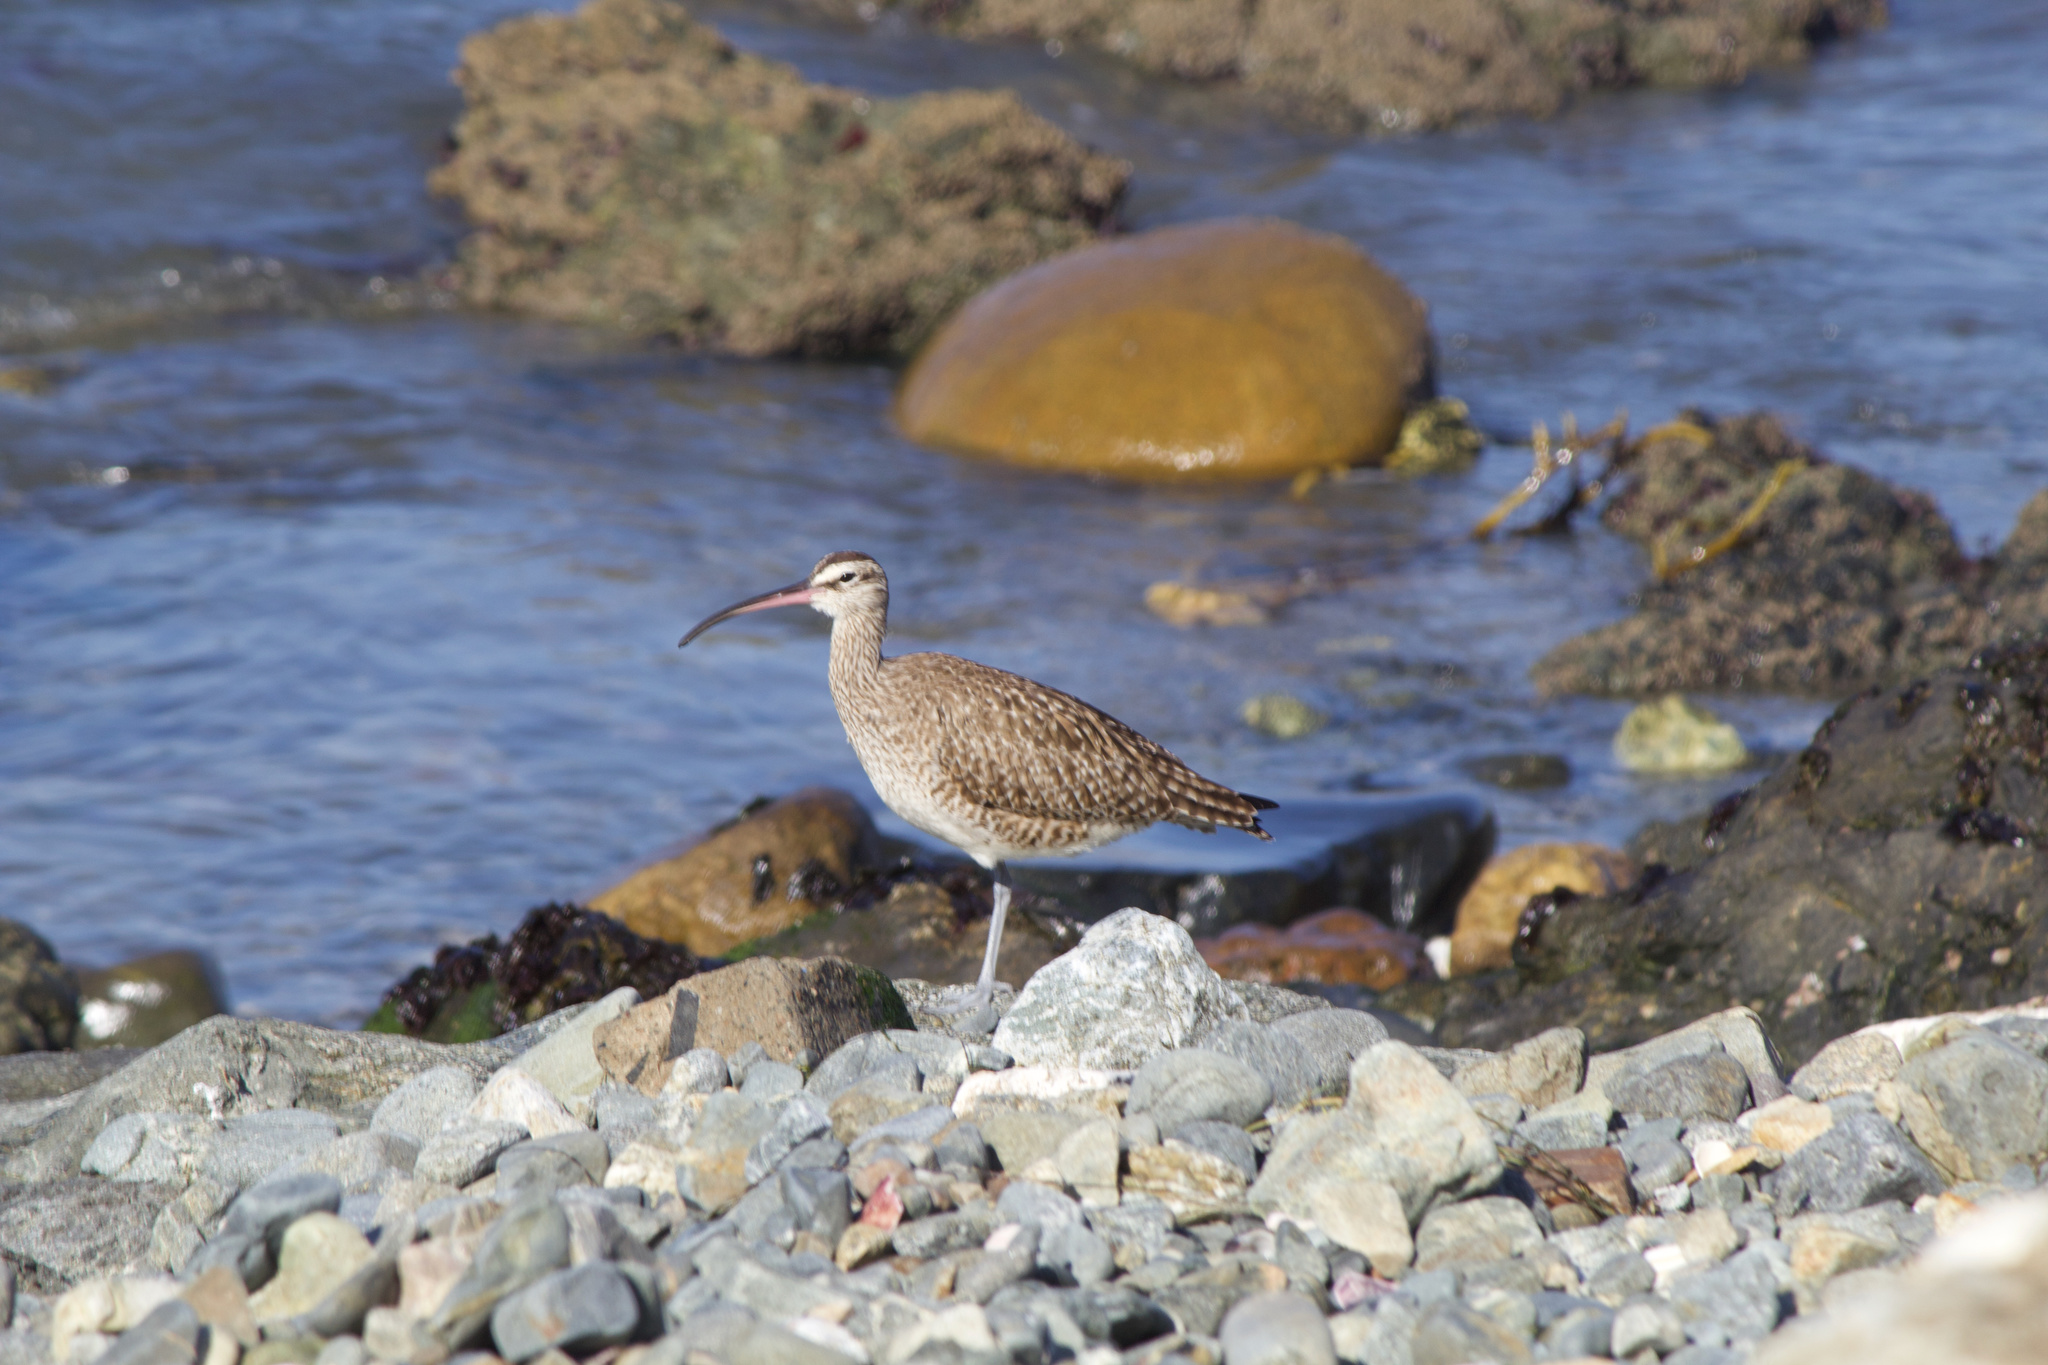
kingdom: Animalia
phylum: Chordata
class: Aves
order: Charadriiformes
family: Scolopacidae
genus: Numenius
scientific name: Numenius phaeopus
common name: Whimbrel
